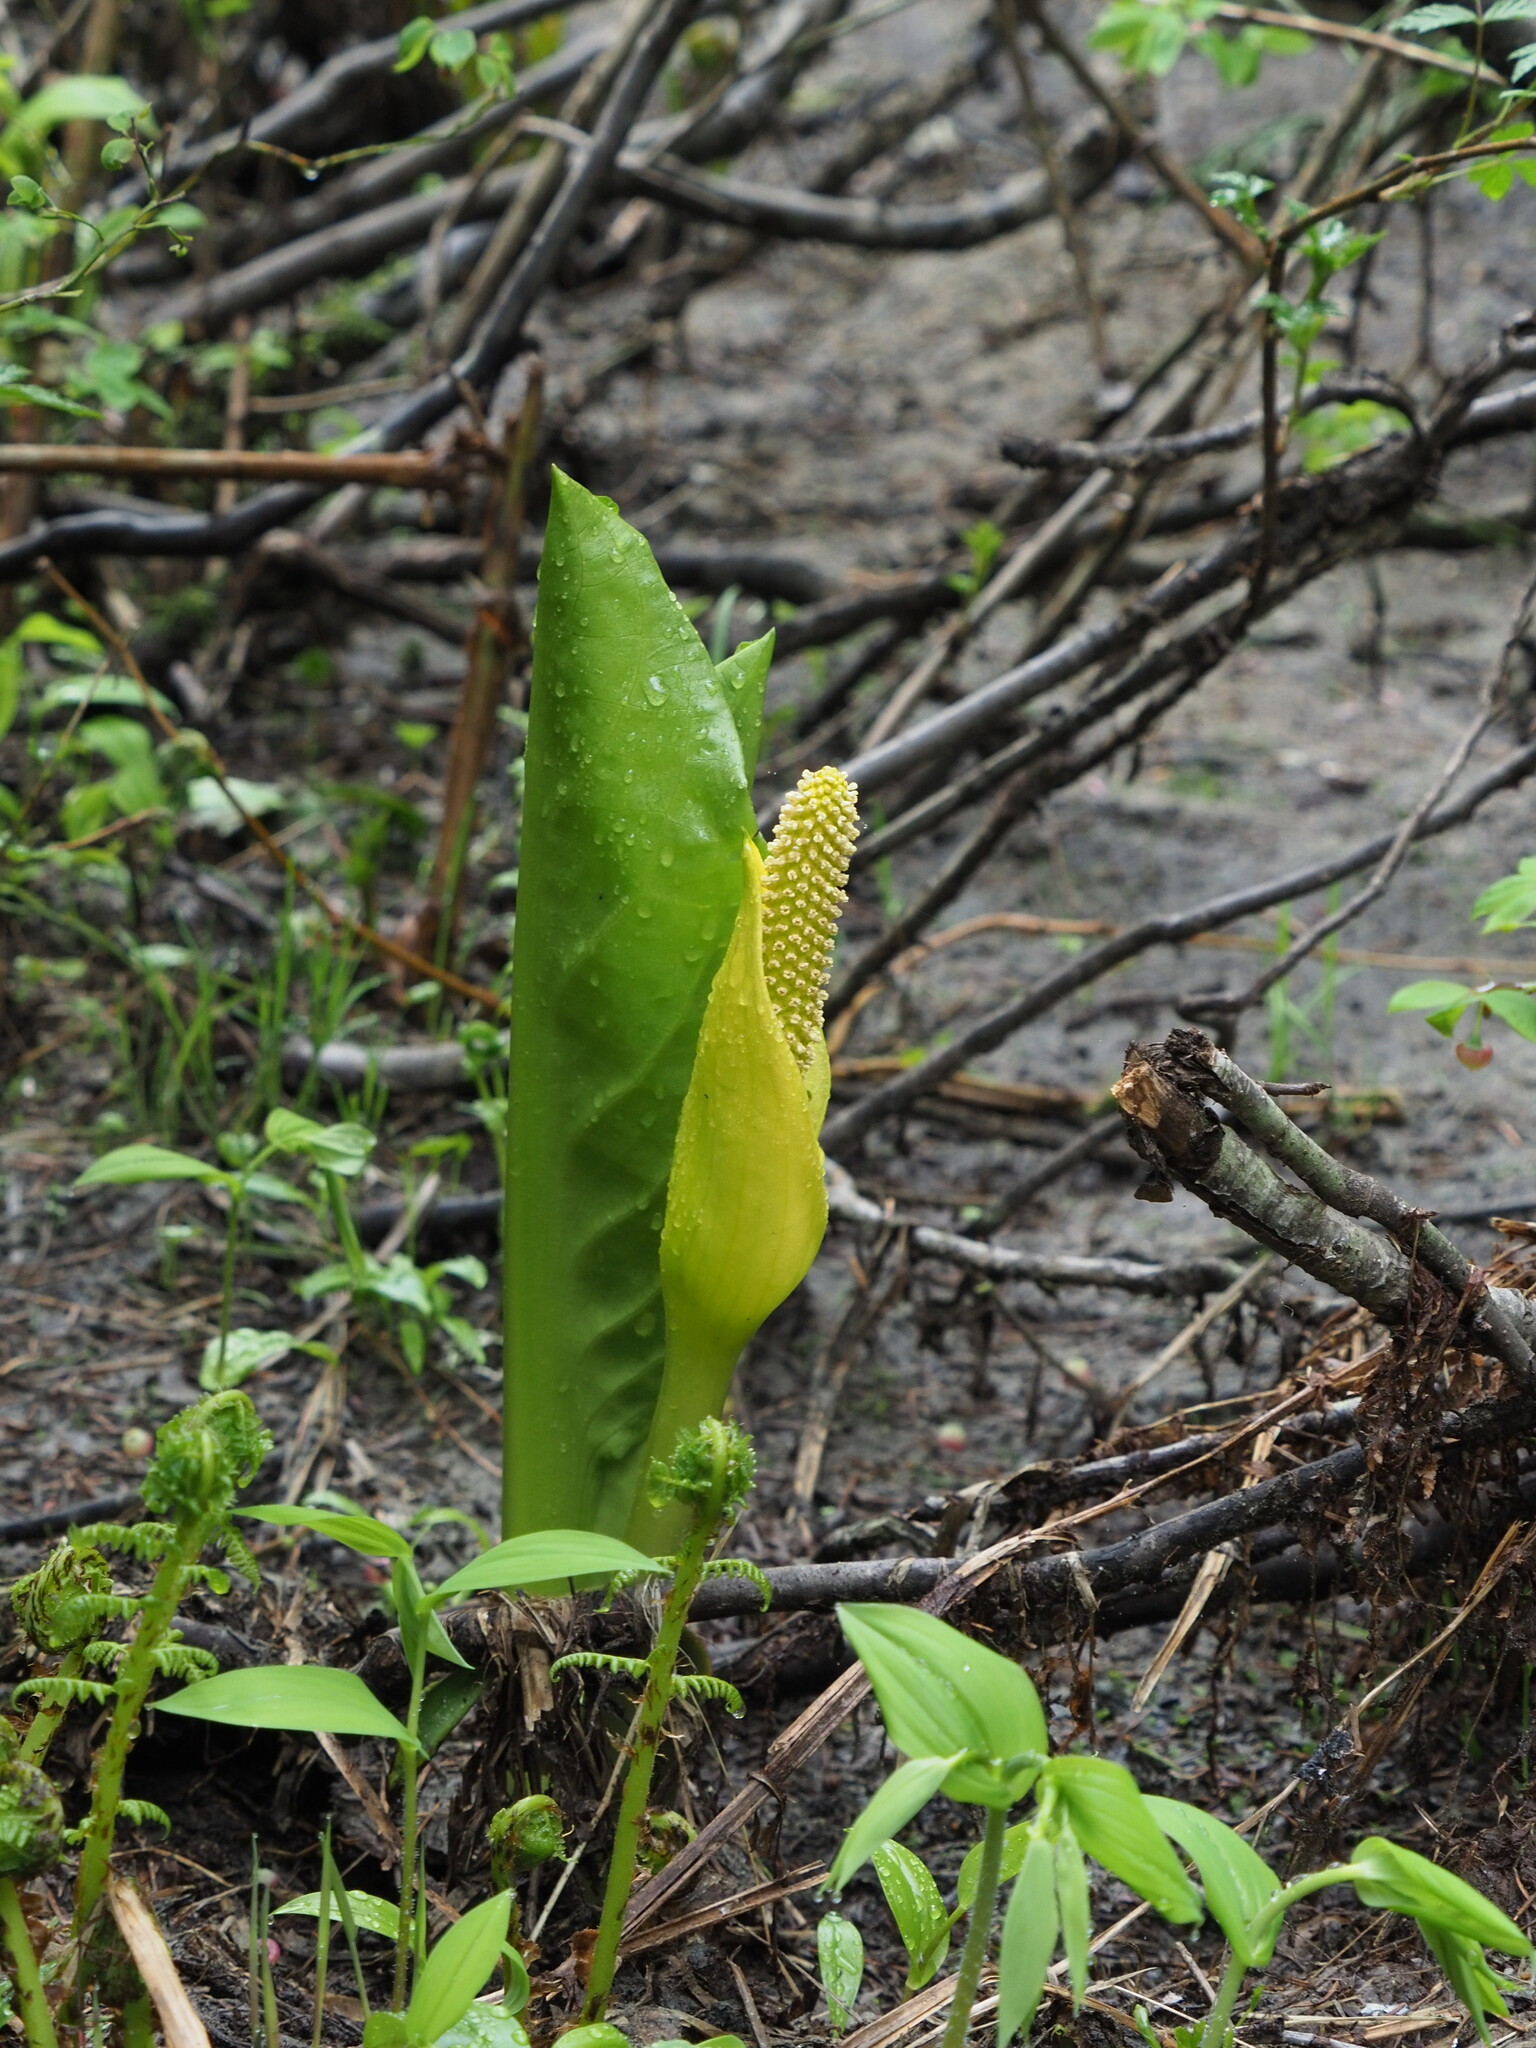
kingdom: Plantae
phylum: Tracheophyta
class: Liliopsida
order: Alismatales
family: Araceae
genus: Lysichiton
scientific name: Lysichiton americanus
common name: American skunk cabbage
